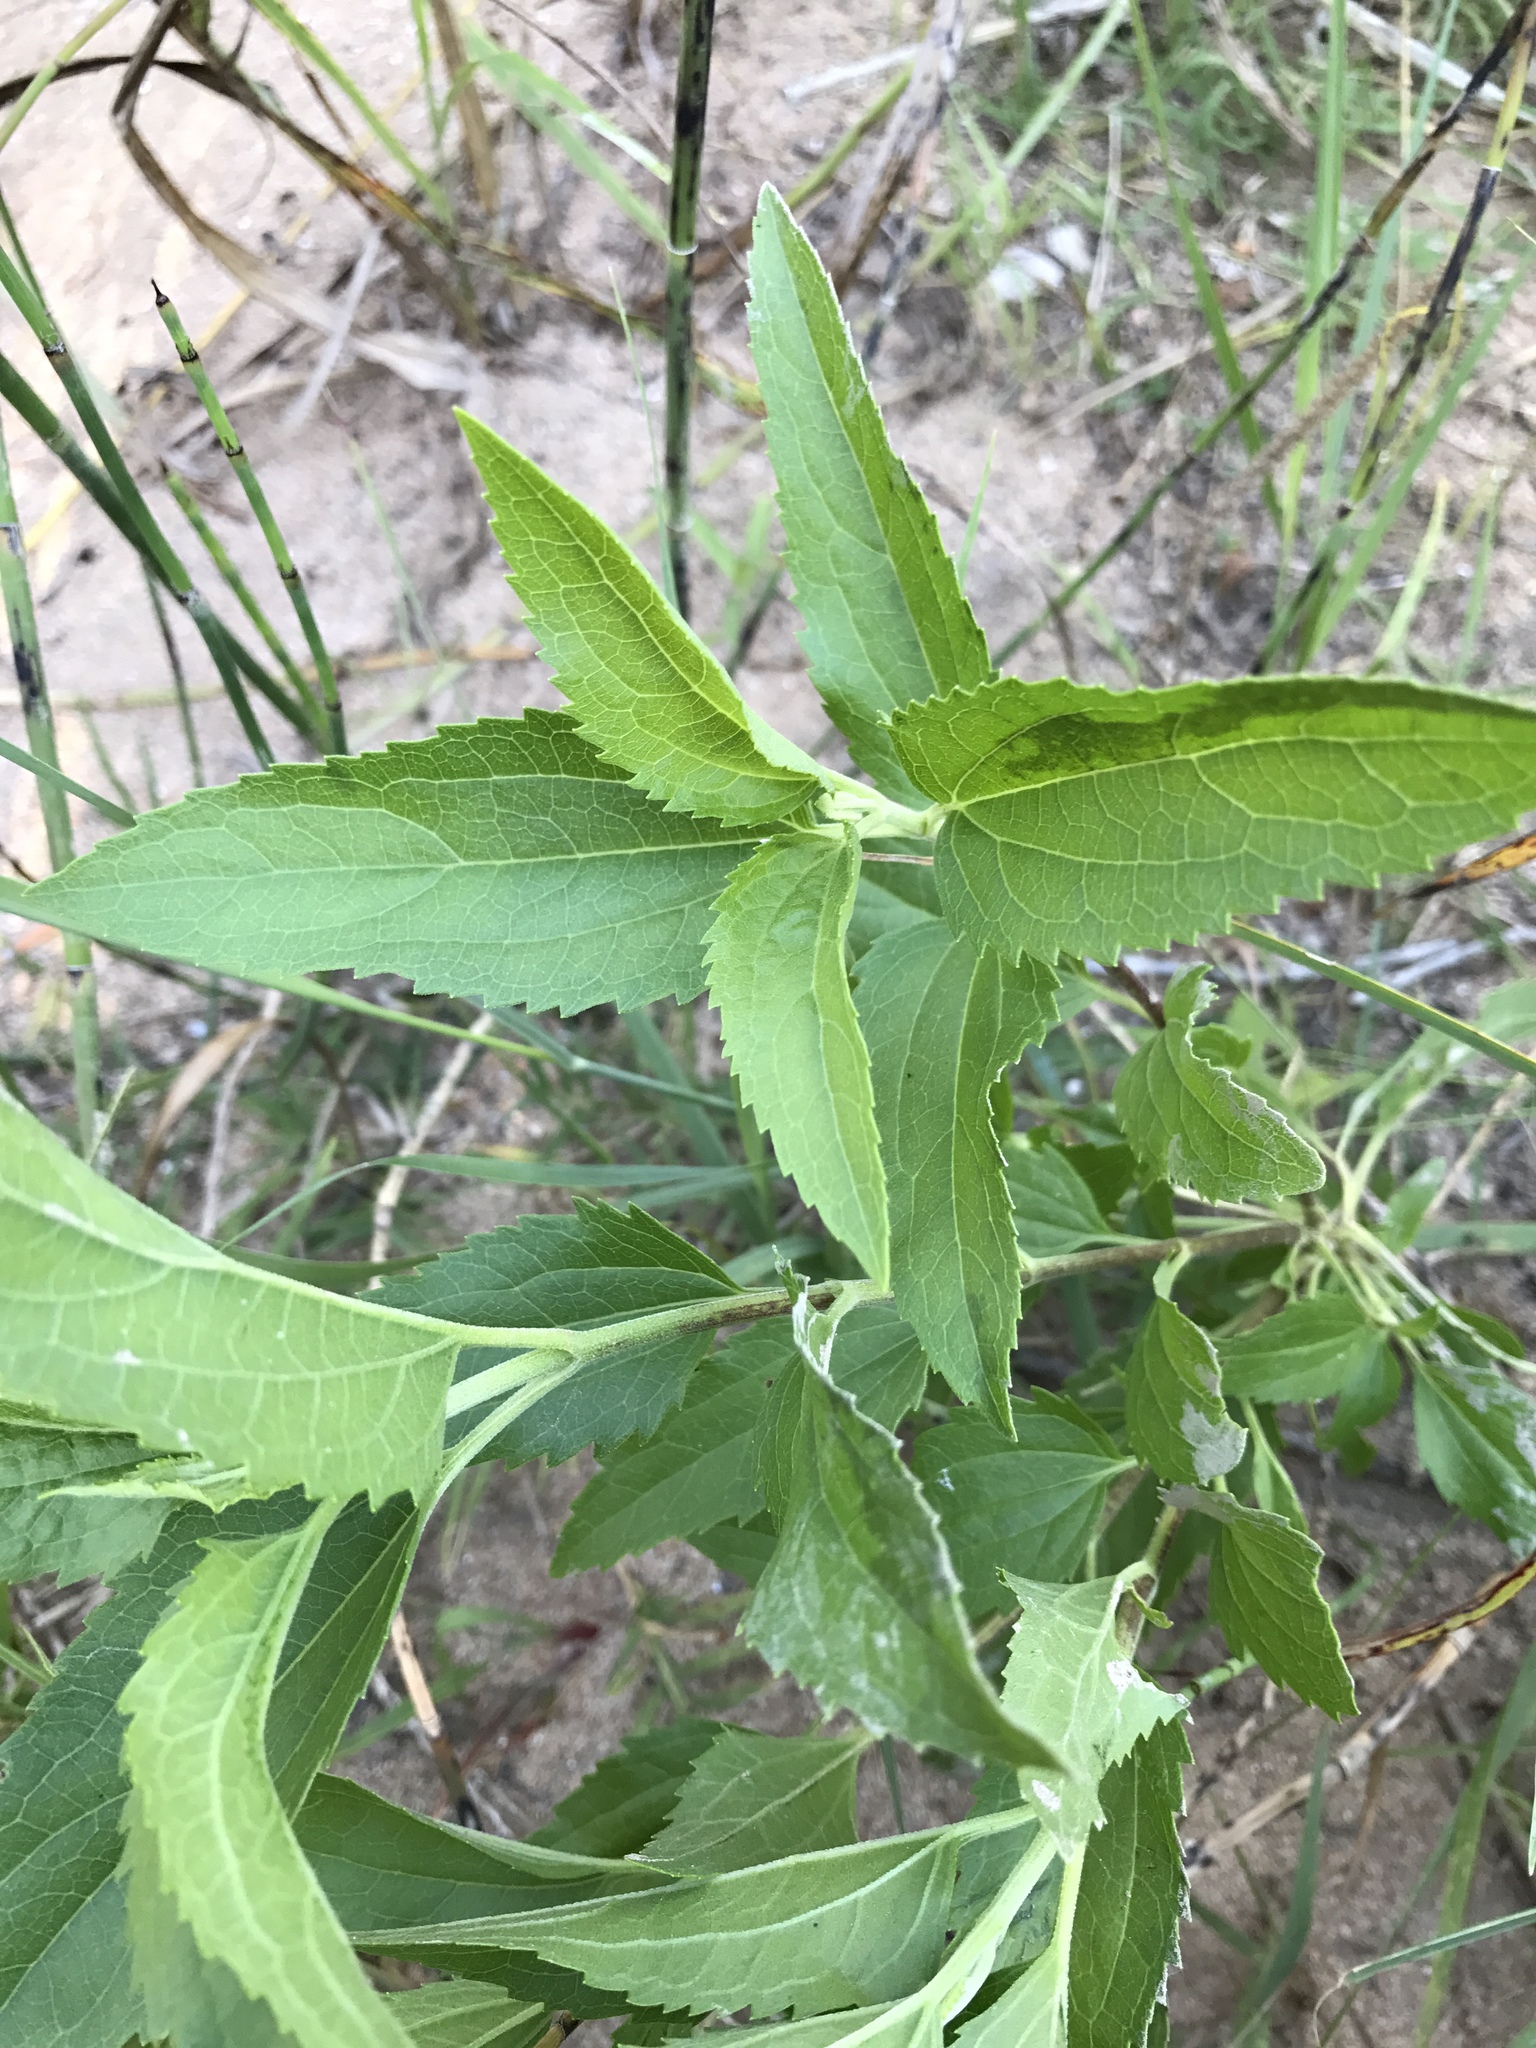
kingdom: Plantae
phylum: Tracheophyta
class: Magnoliopsida
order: Asterales
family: Asteraceae
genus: Eupatorium
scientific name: Eupatorium serotinum
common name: Late boneset
